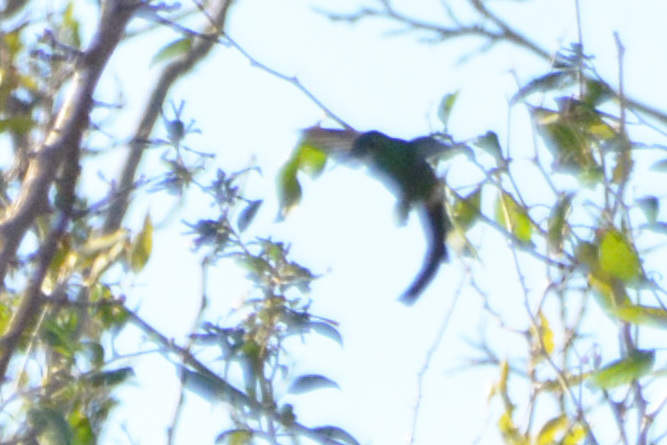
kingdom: Animalia
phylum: Chordata
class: Aves
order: Apodiformes
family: Trochilidae
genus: Sappho
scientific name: Sappho sparganurus
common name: Red-tailed comet
